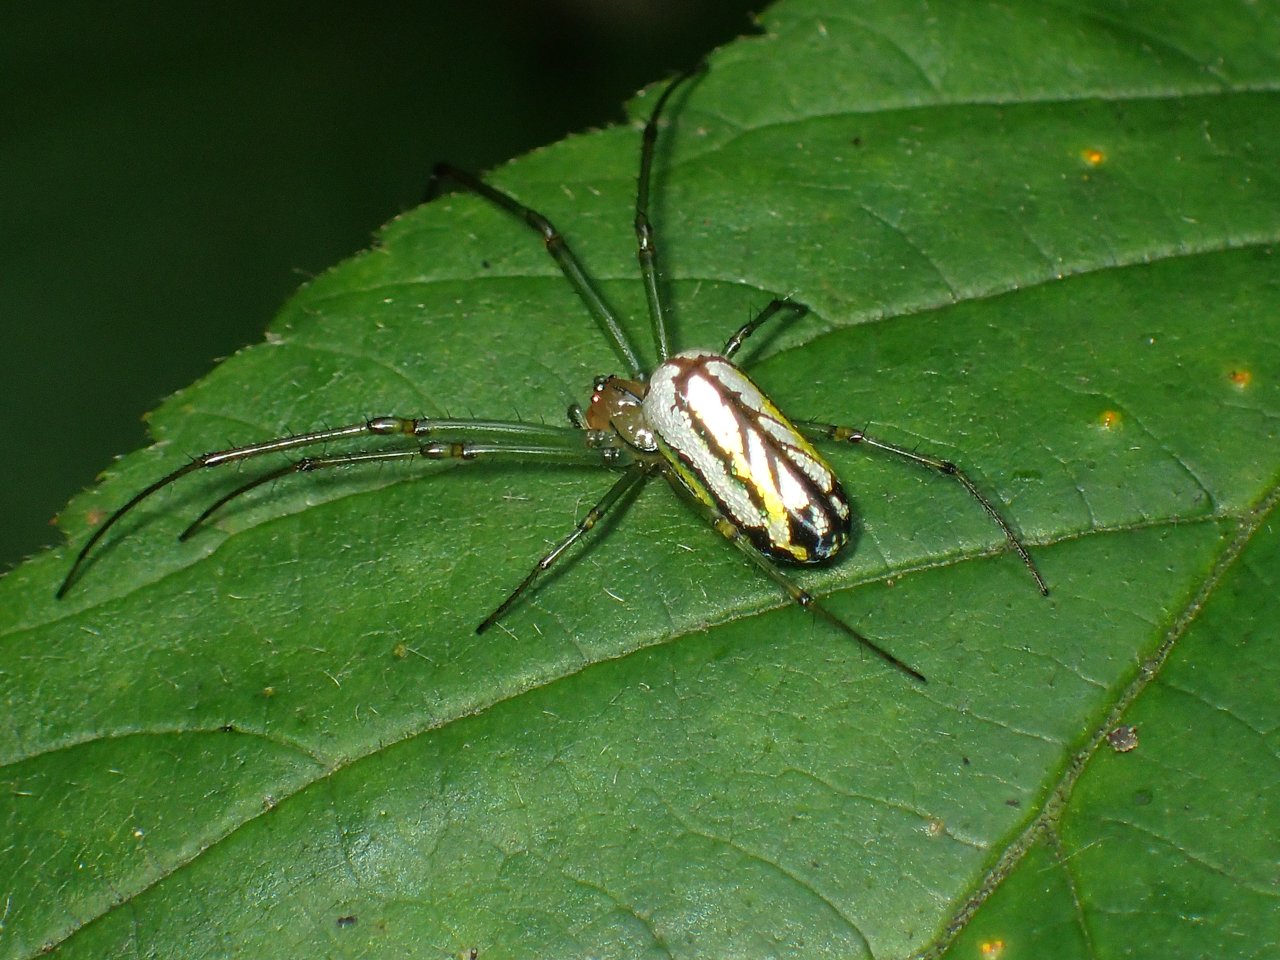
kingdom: Animalia
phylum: Arthropoda
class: Arachnida
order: Araneae
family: Tetragnathidae
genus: Leucauge
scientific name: Leucauge venusta
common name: Longjawed orb weavers
